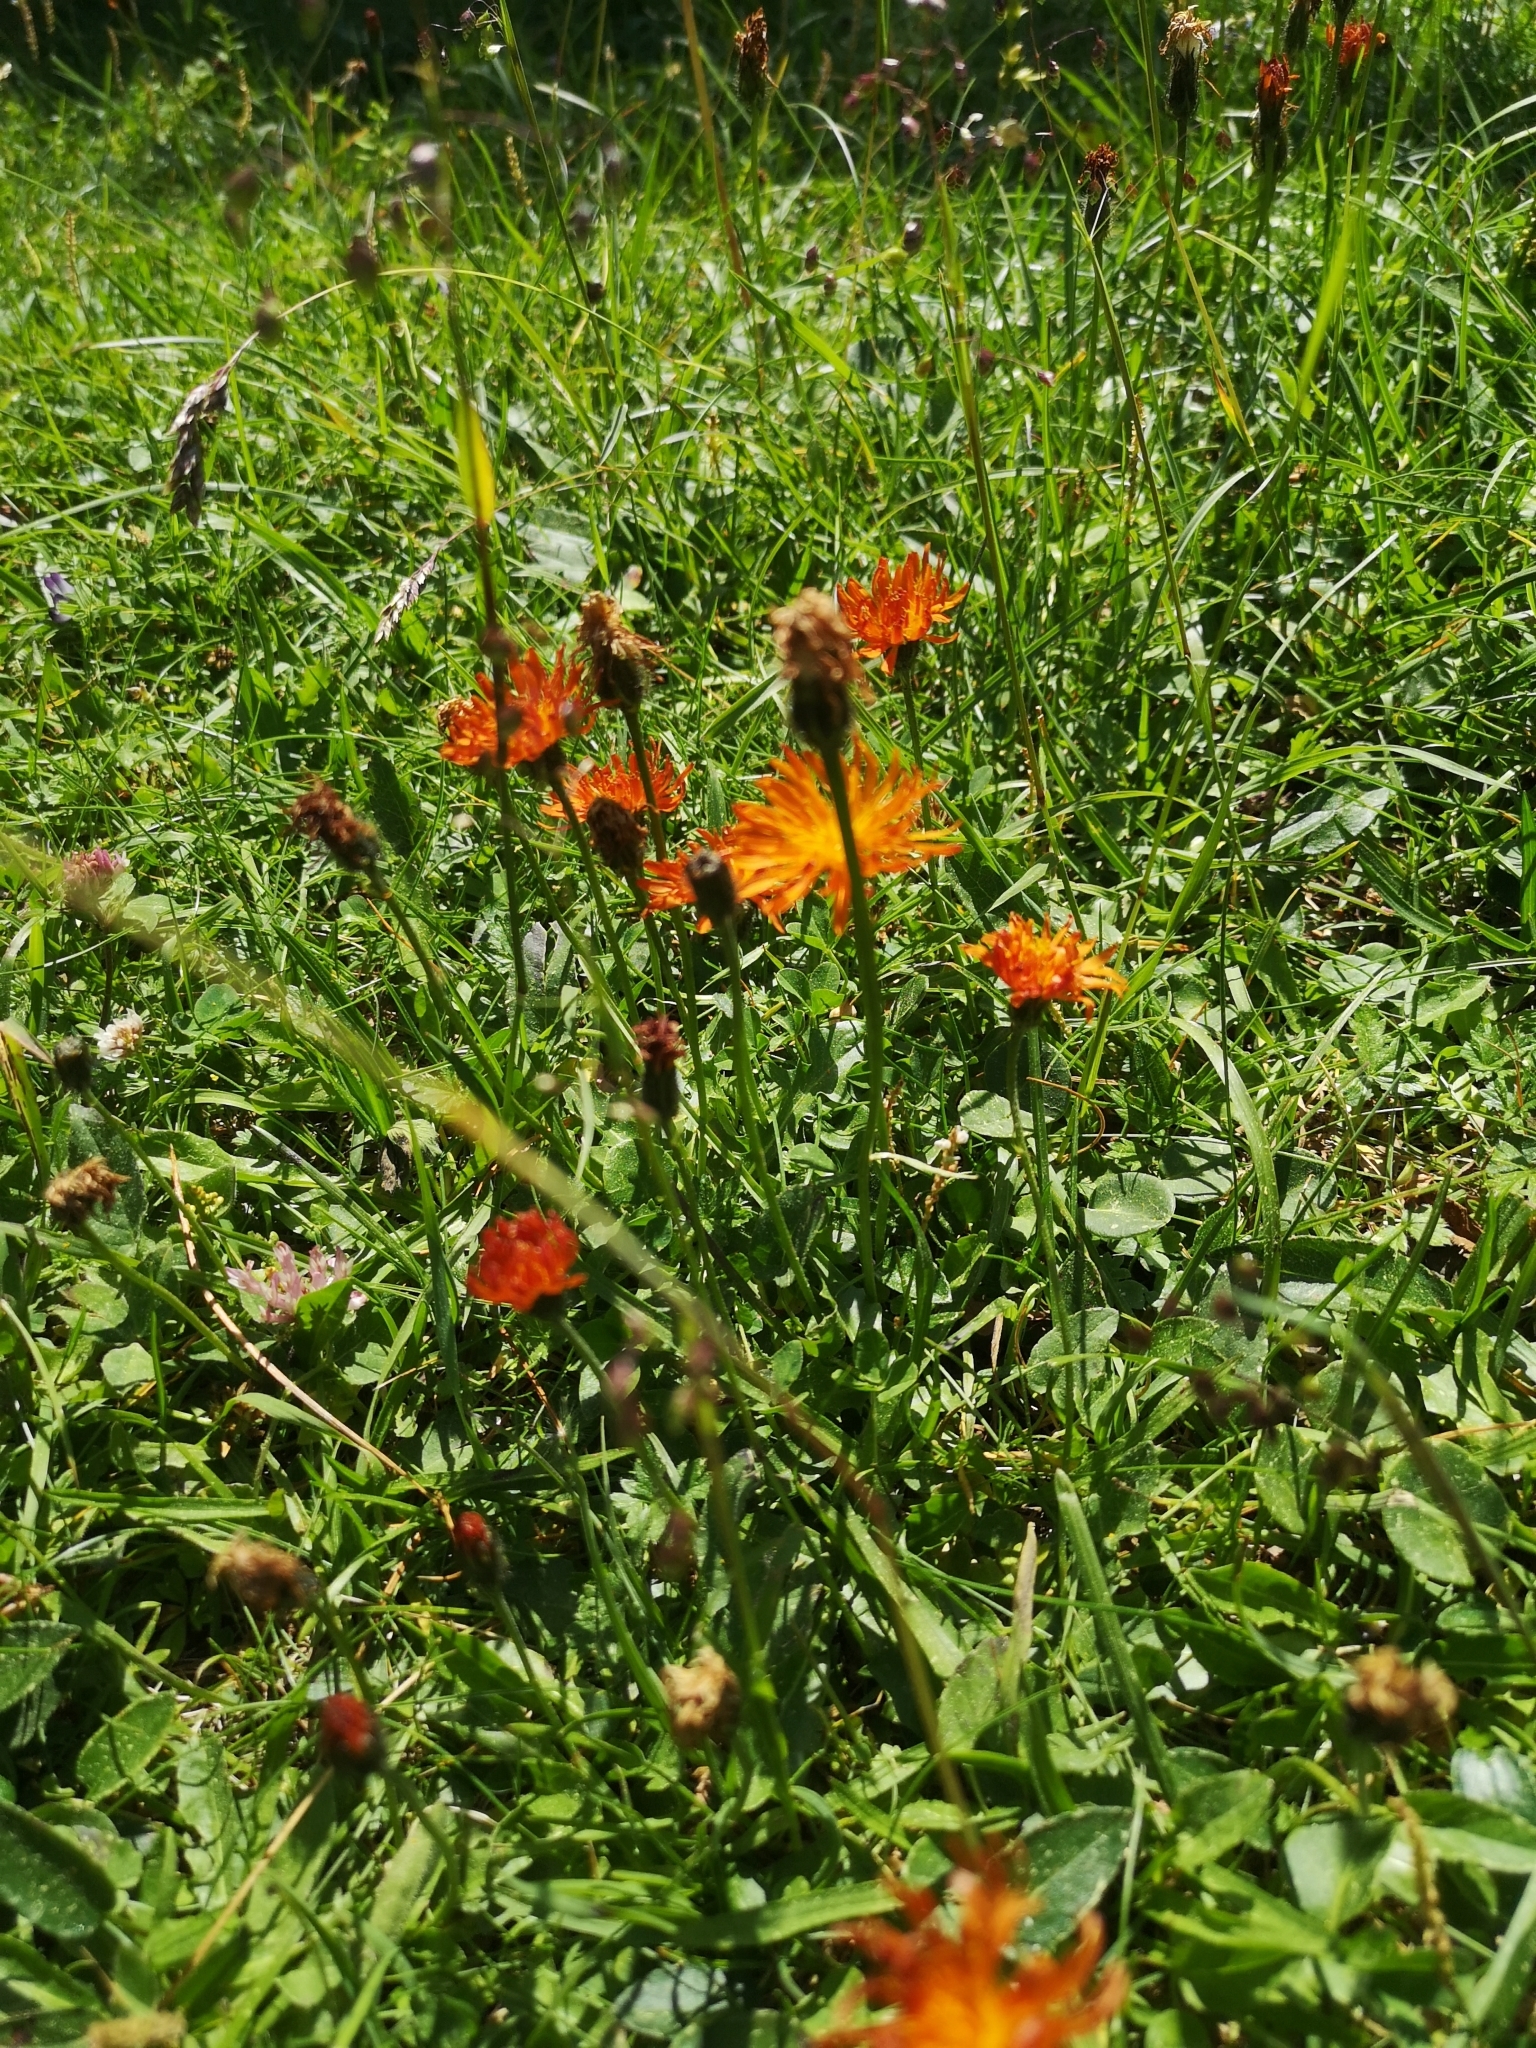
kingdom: Plantae
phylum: Tracheophyta
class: Magnoliopsida
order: Asterales
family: Asteraceae
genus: Crepis
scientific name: Crepis aurea
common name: Golden hawk's-beard
